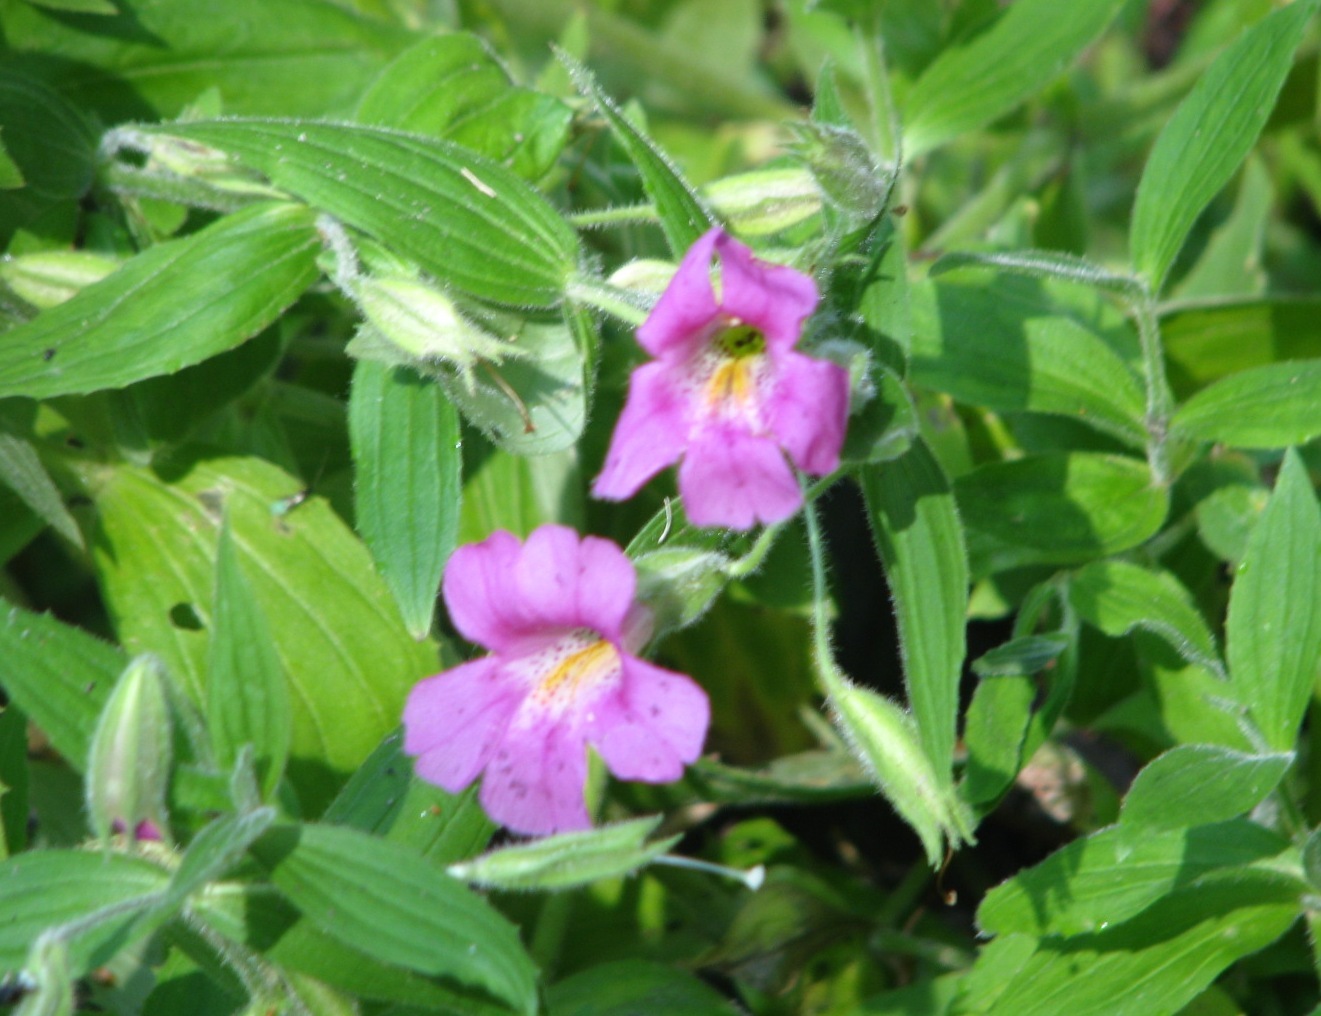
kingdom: Plantae
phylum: Tracheophyta
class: Magnoliopsida
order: Lamiales
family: Phrymaceae
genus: Erythranthe
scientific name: Erythranthe lewisii
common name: Lewis's monkey-flower
